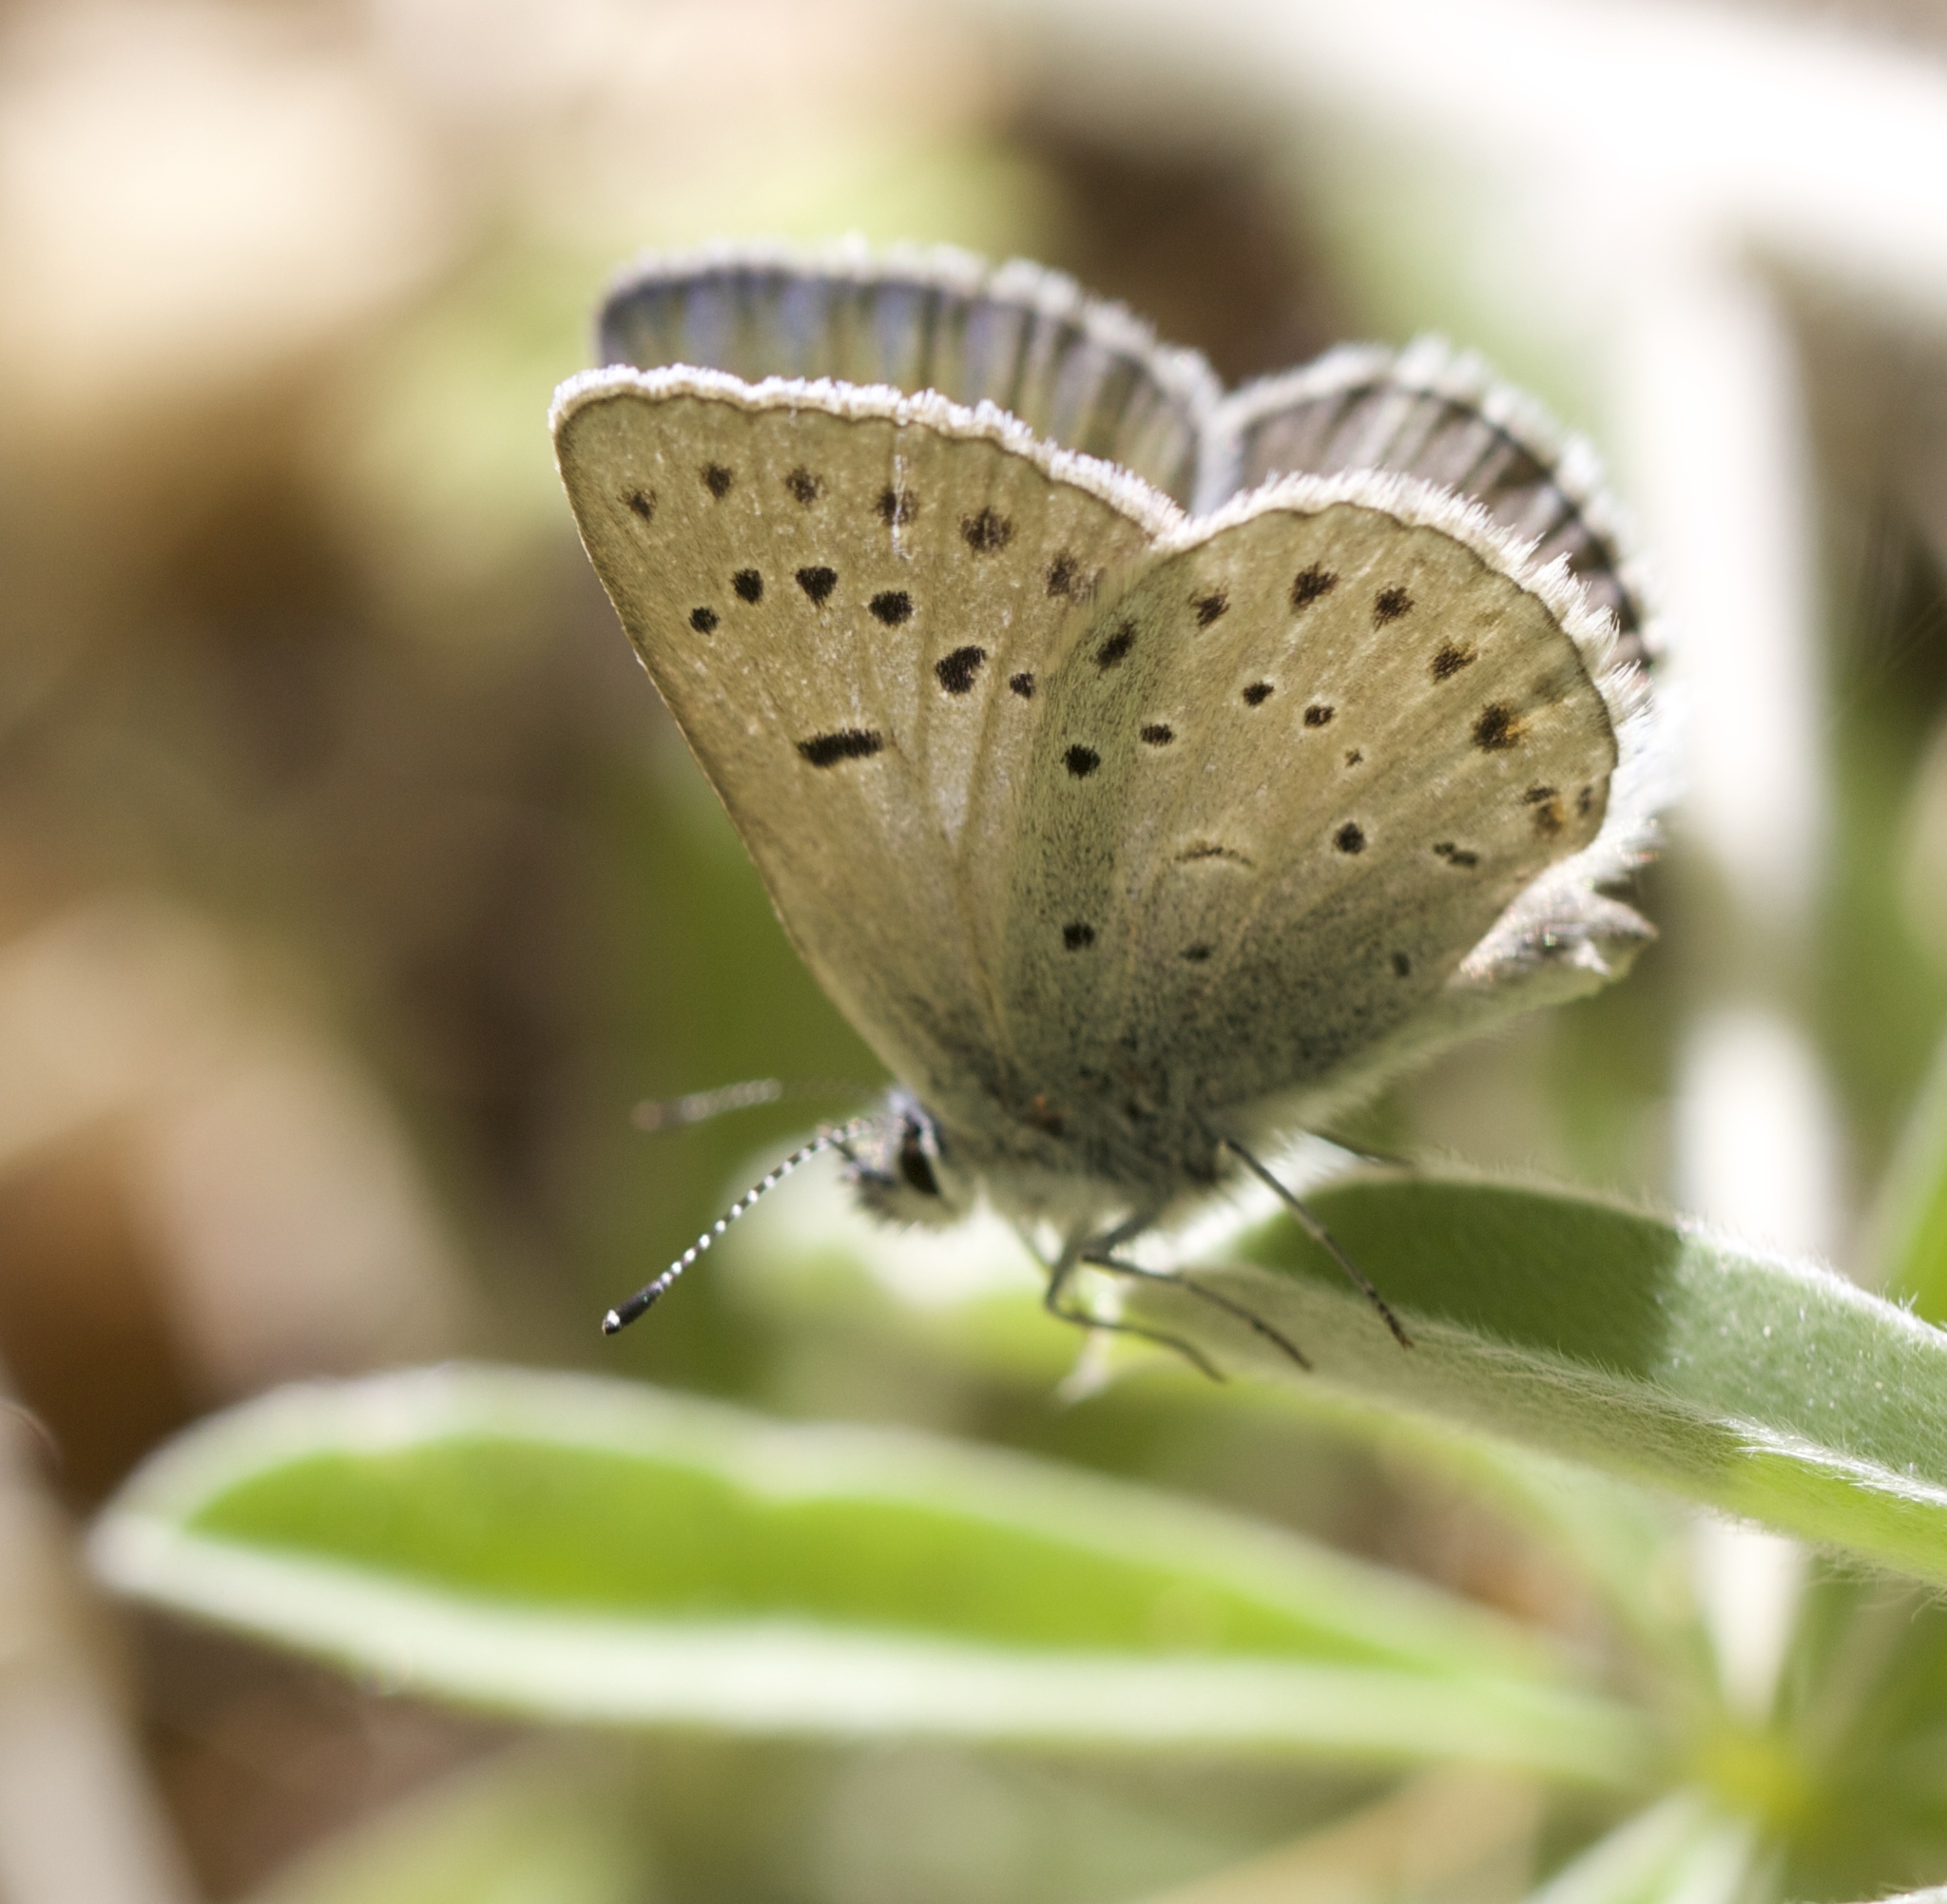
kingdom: Animalia
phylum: Arthropoda
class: Insecta
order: Lepidoptera
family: Lycaenidae
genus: Icaricia
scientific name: Icaricia icarioides
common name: Boisduval's blue
